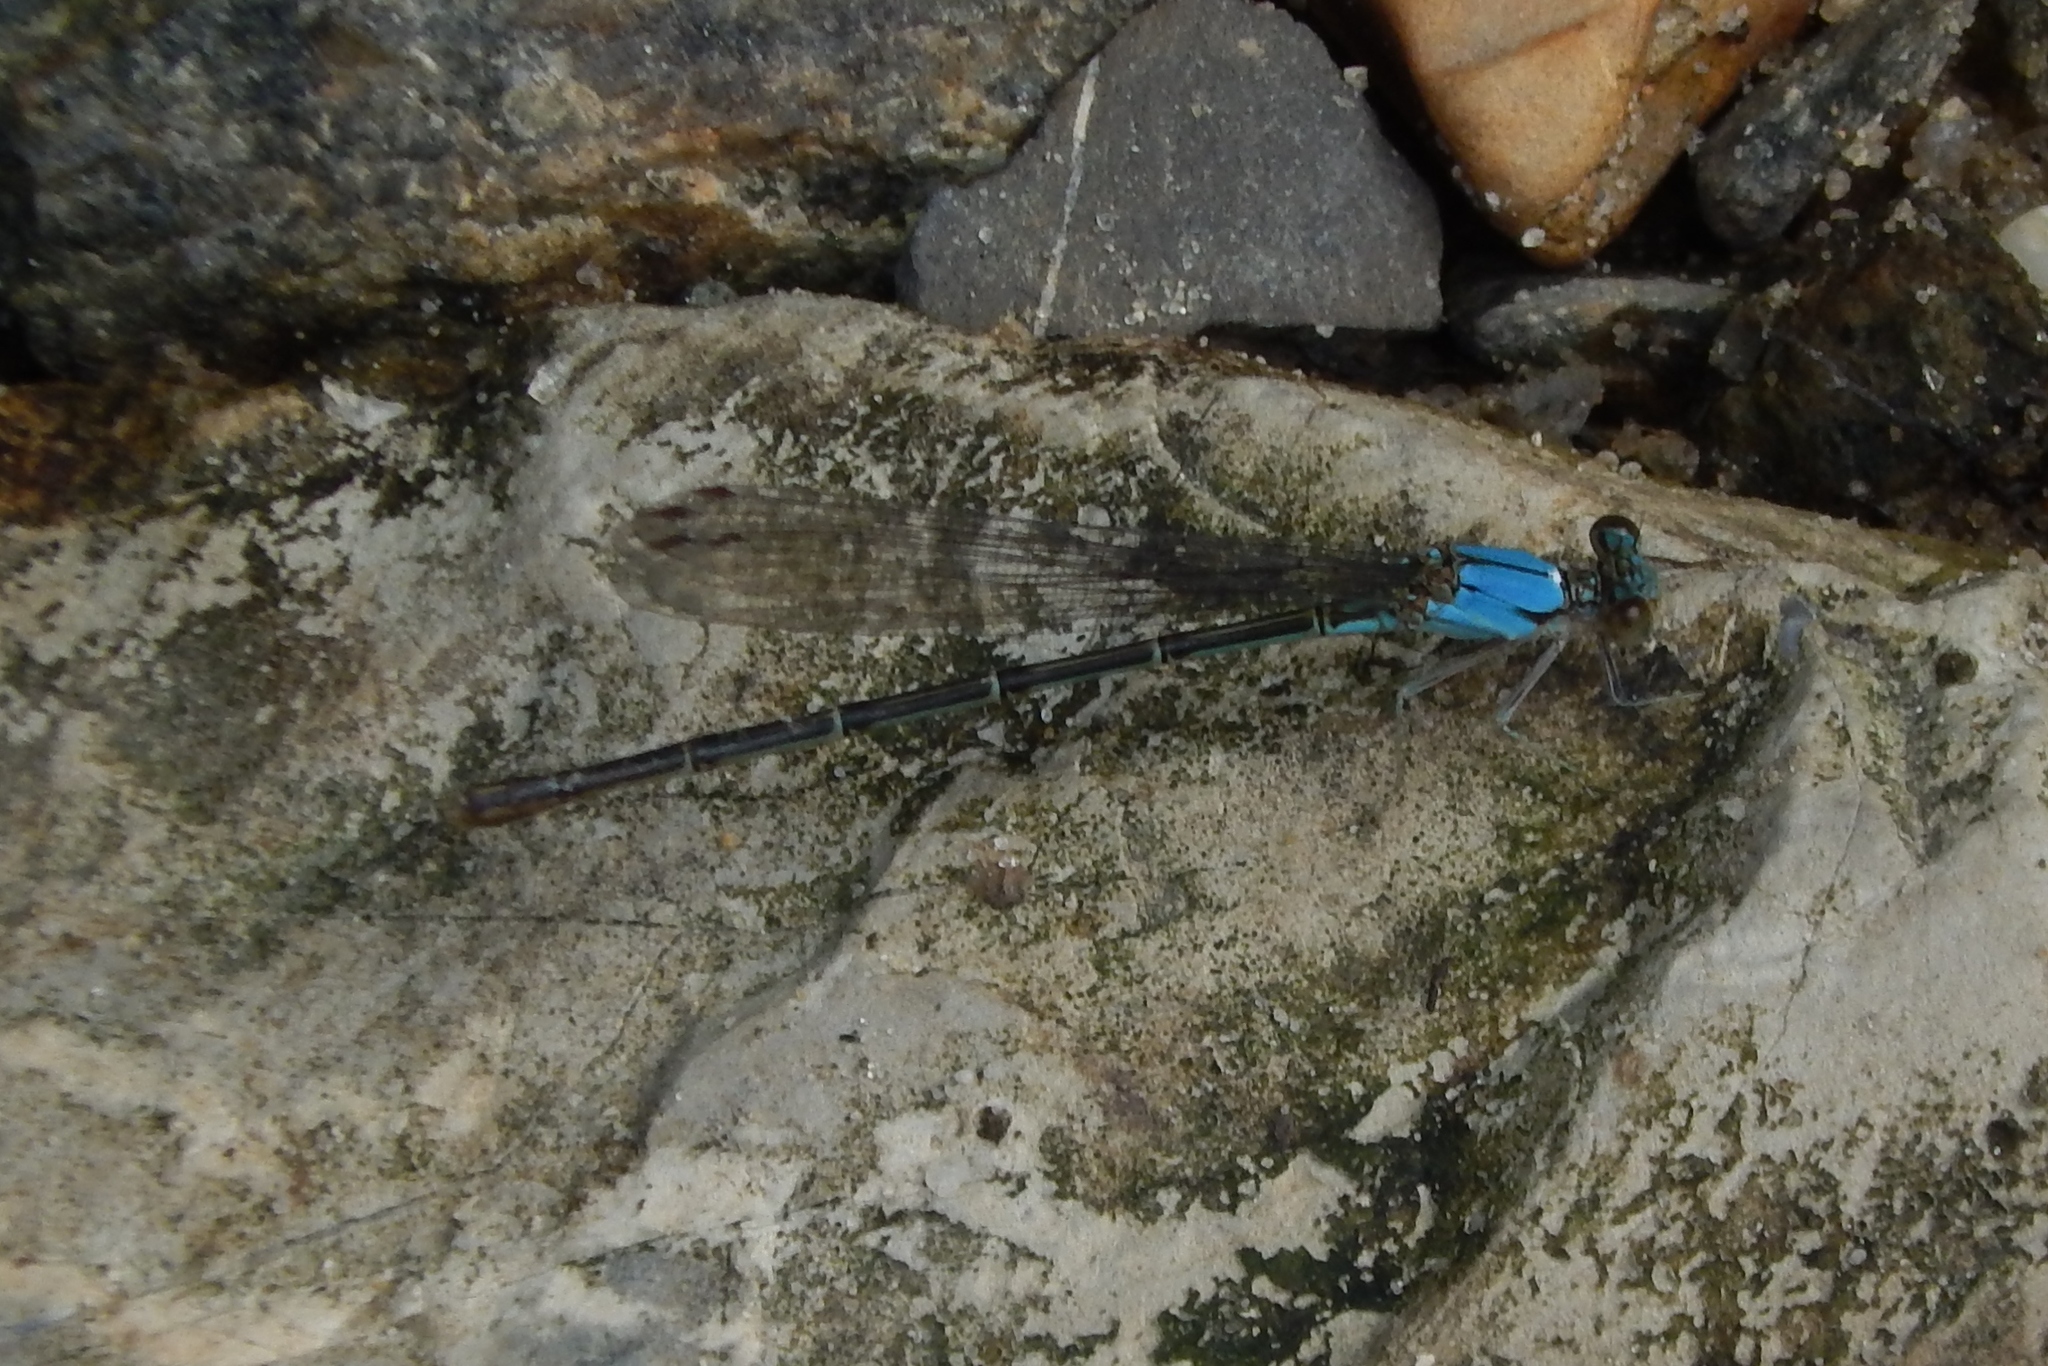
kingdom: Animalia
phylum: Arthropoda
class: Insecta
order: Odonata
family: Coenagrionidae
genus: Argia
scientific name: Argia apicalis
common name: Blue-fronted dancer
